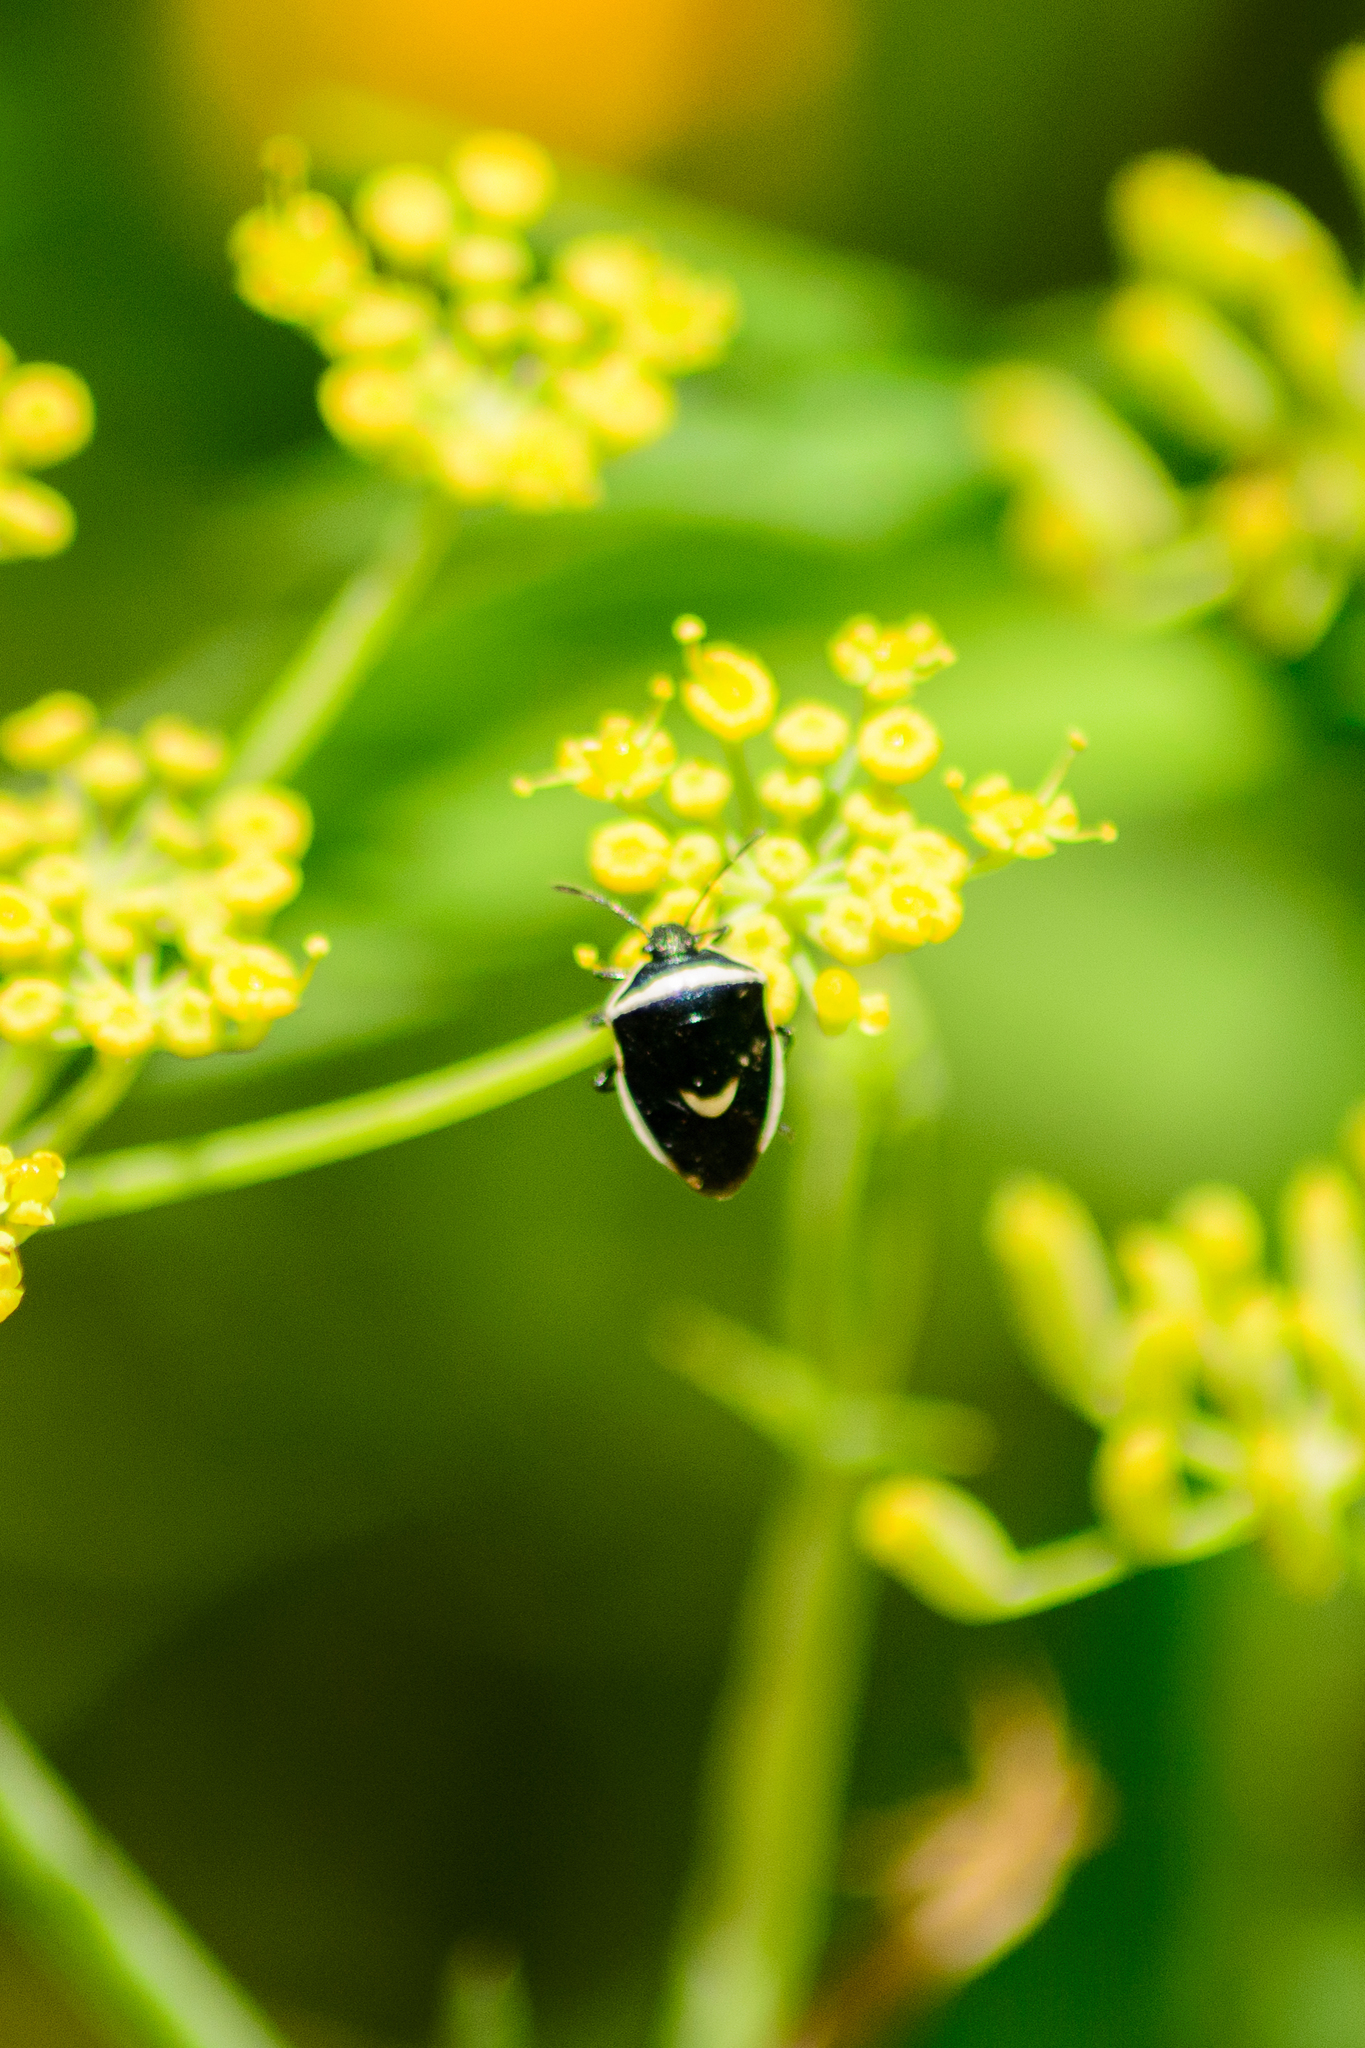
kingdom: Animalia
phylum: Arthropoda
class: Insecta
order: Hemiptera
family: Pentatomidae
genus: Cosmopepla
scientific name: Cosmopepla decorata
